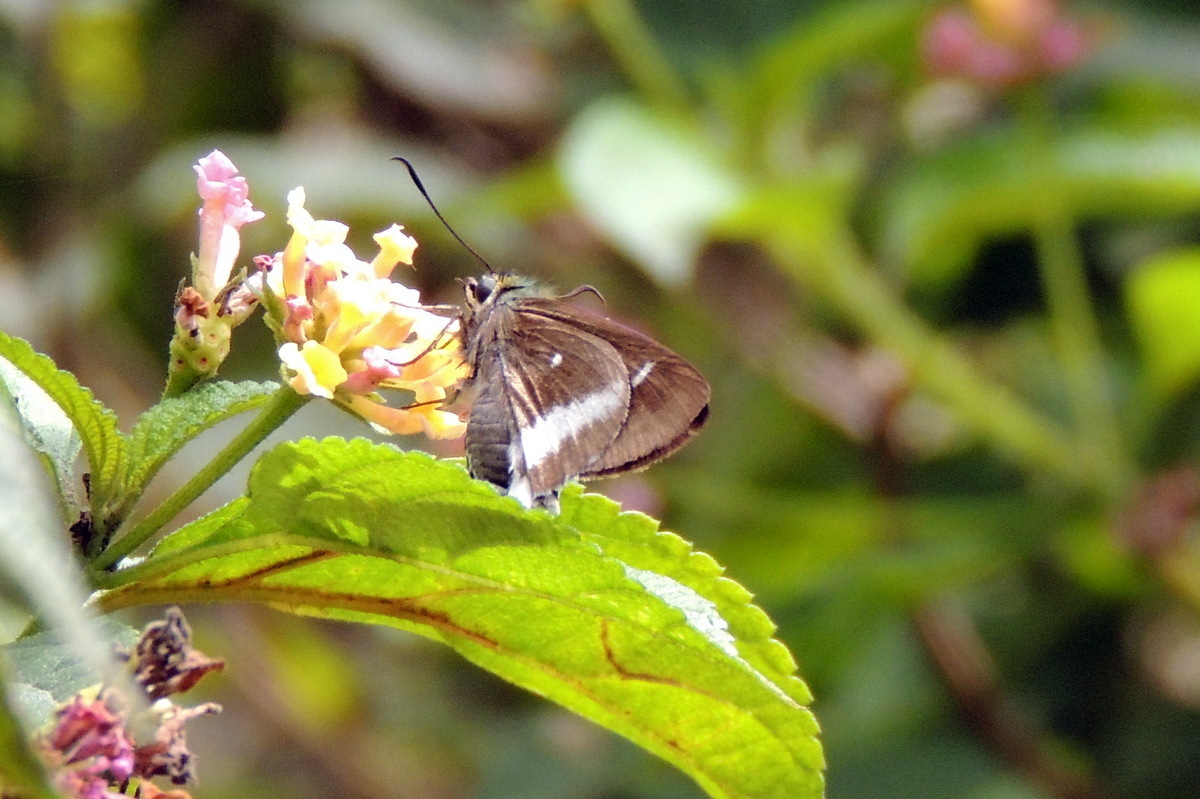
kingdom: Animalia
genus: Tekliades
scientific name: Tekliades
